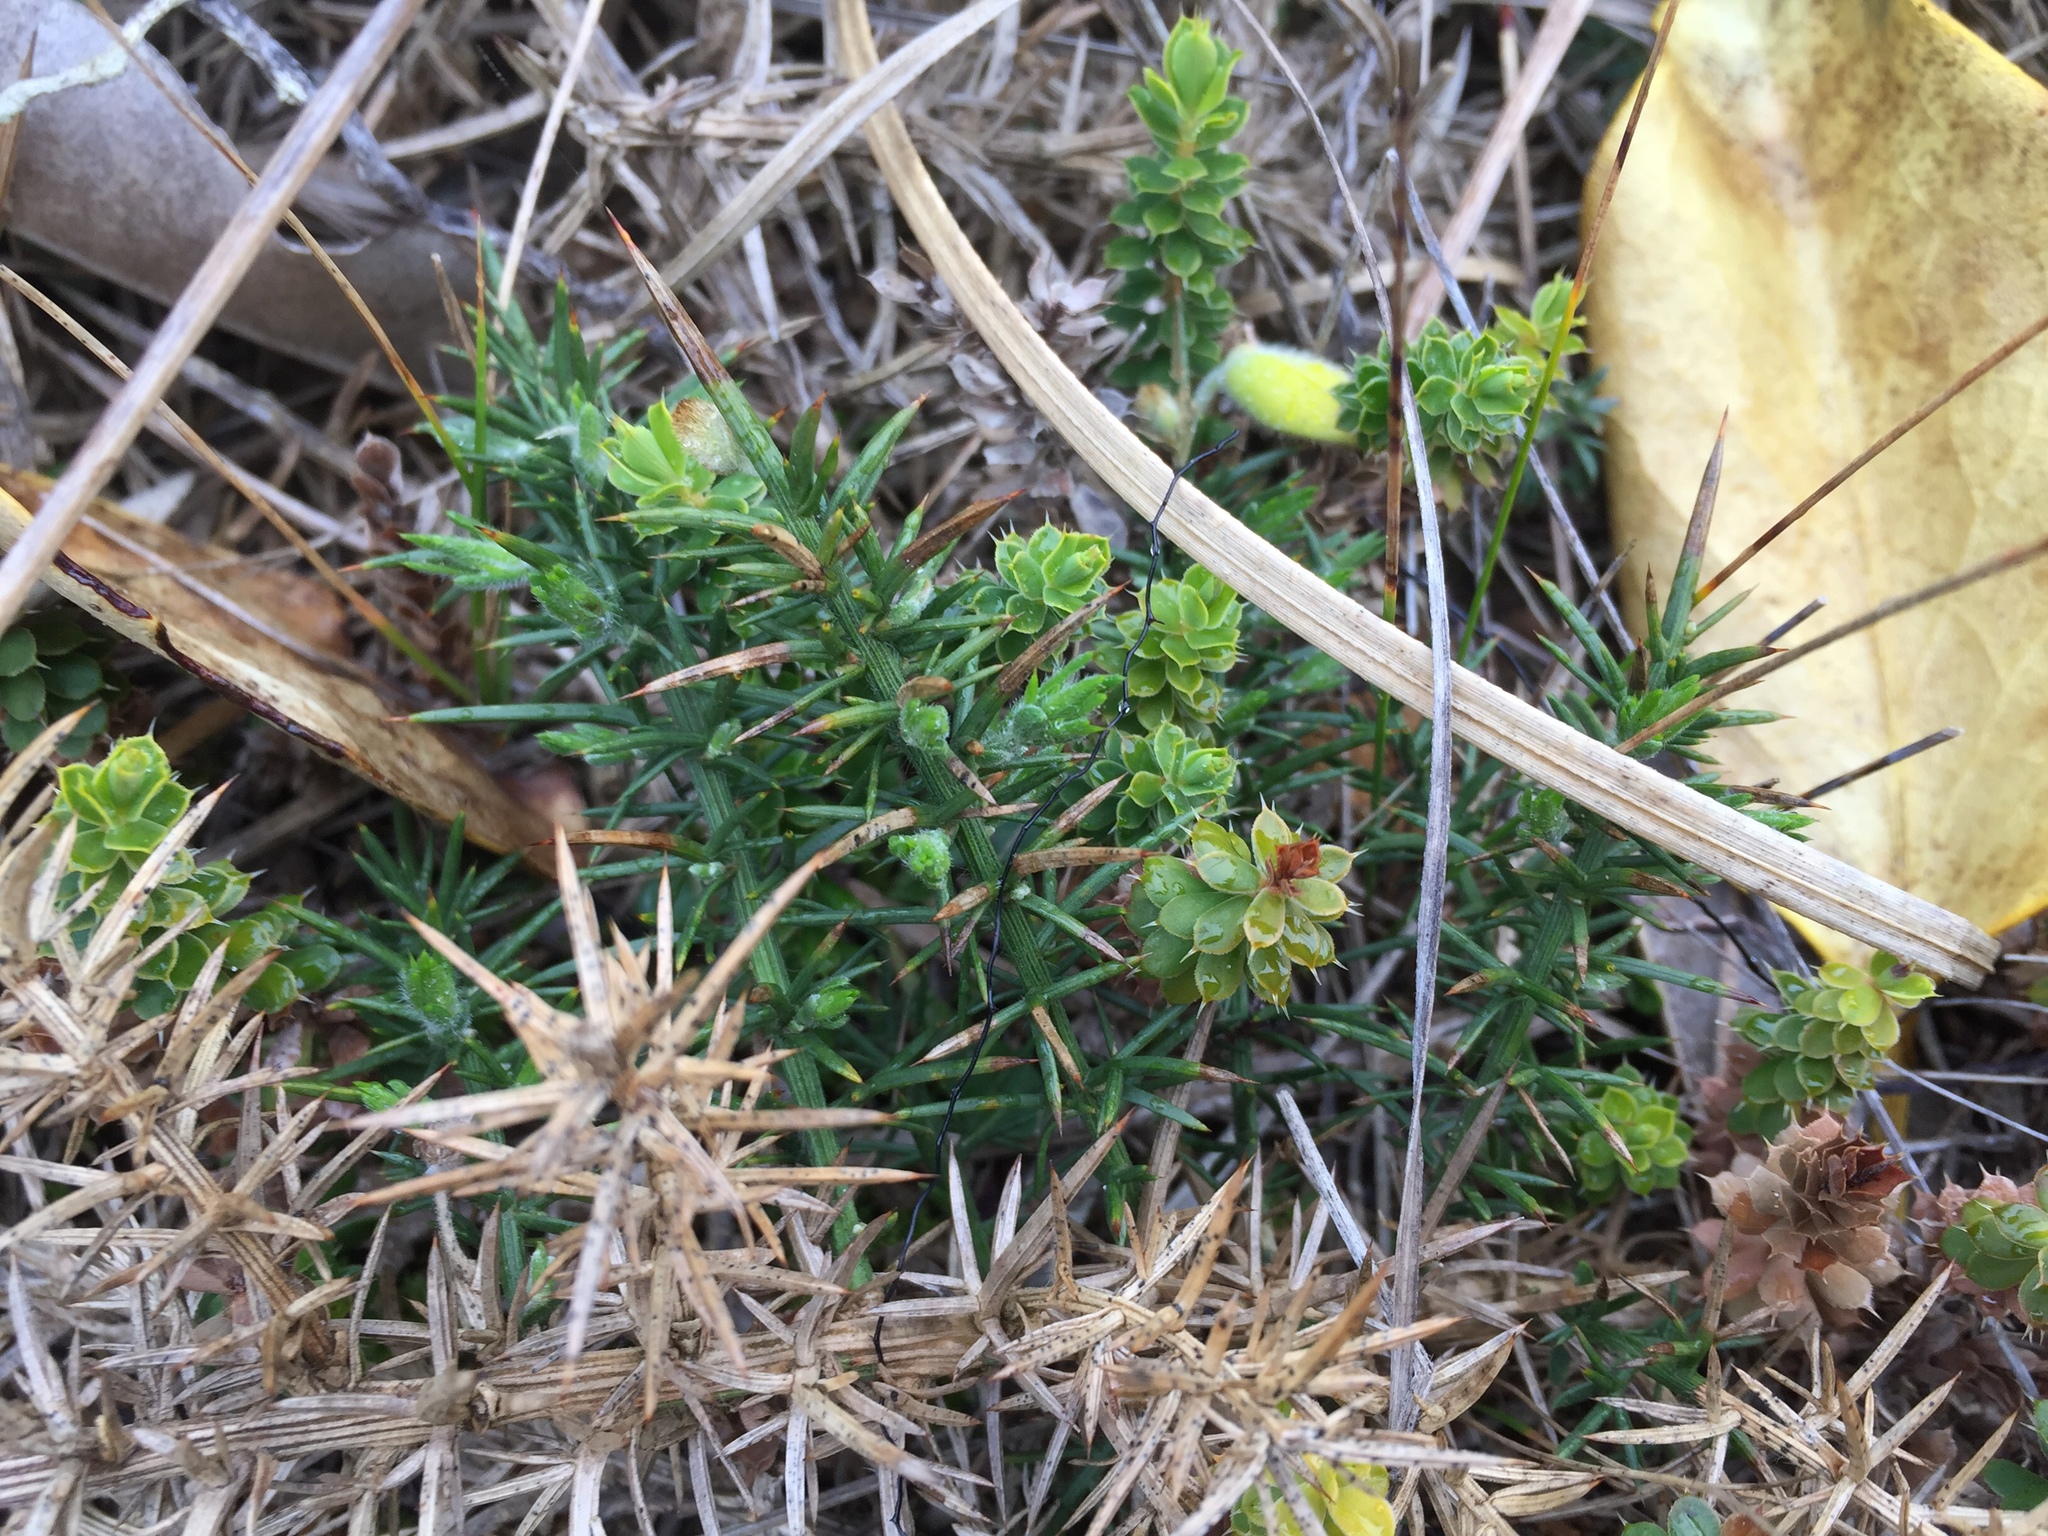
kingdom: Plantae
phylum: Tracheophyta
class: Magnoliopsida
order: Ericales
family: Ericaceae
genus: Styphelia
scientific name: Styphelia nesophila
